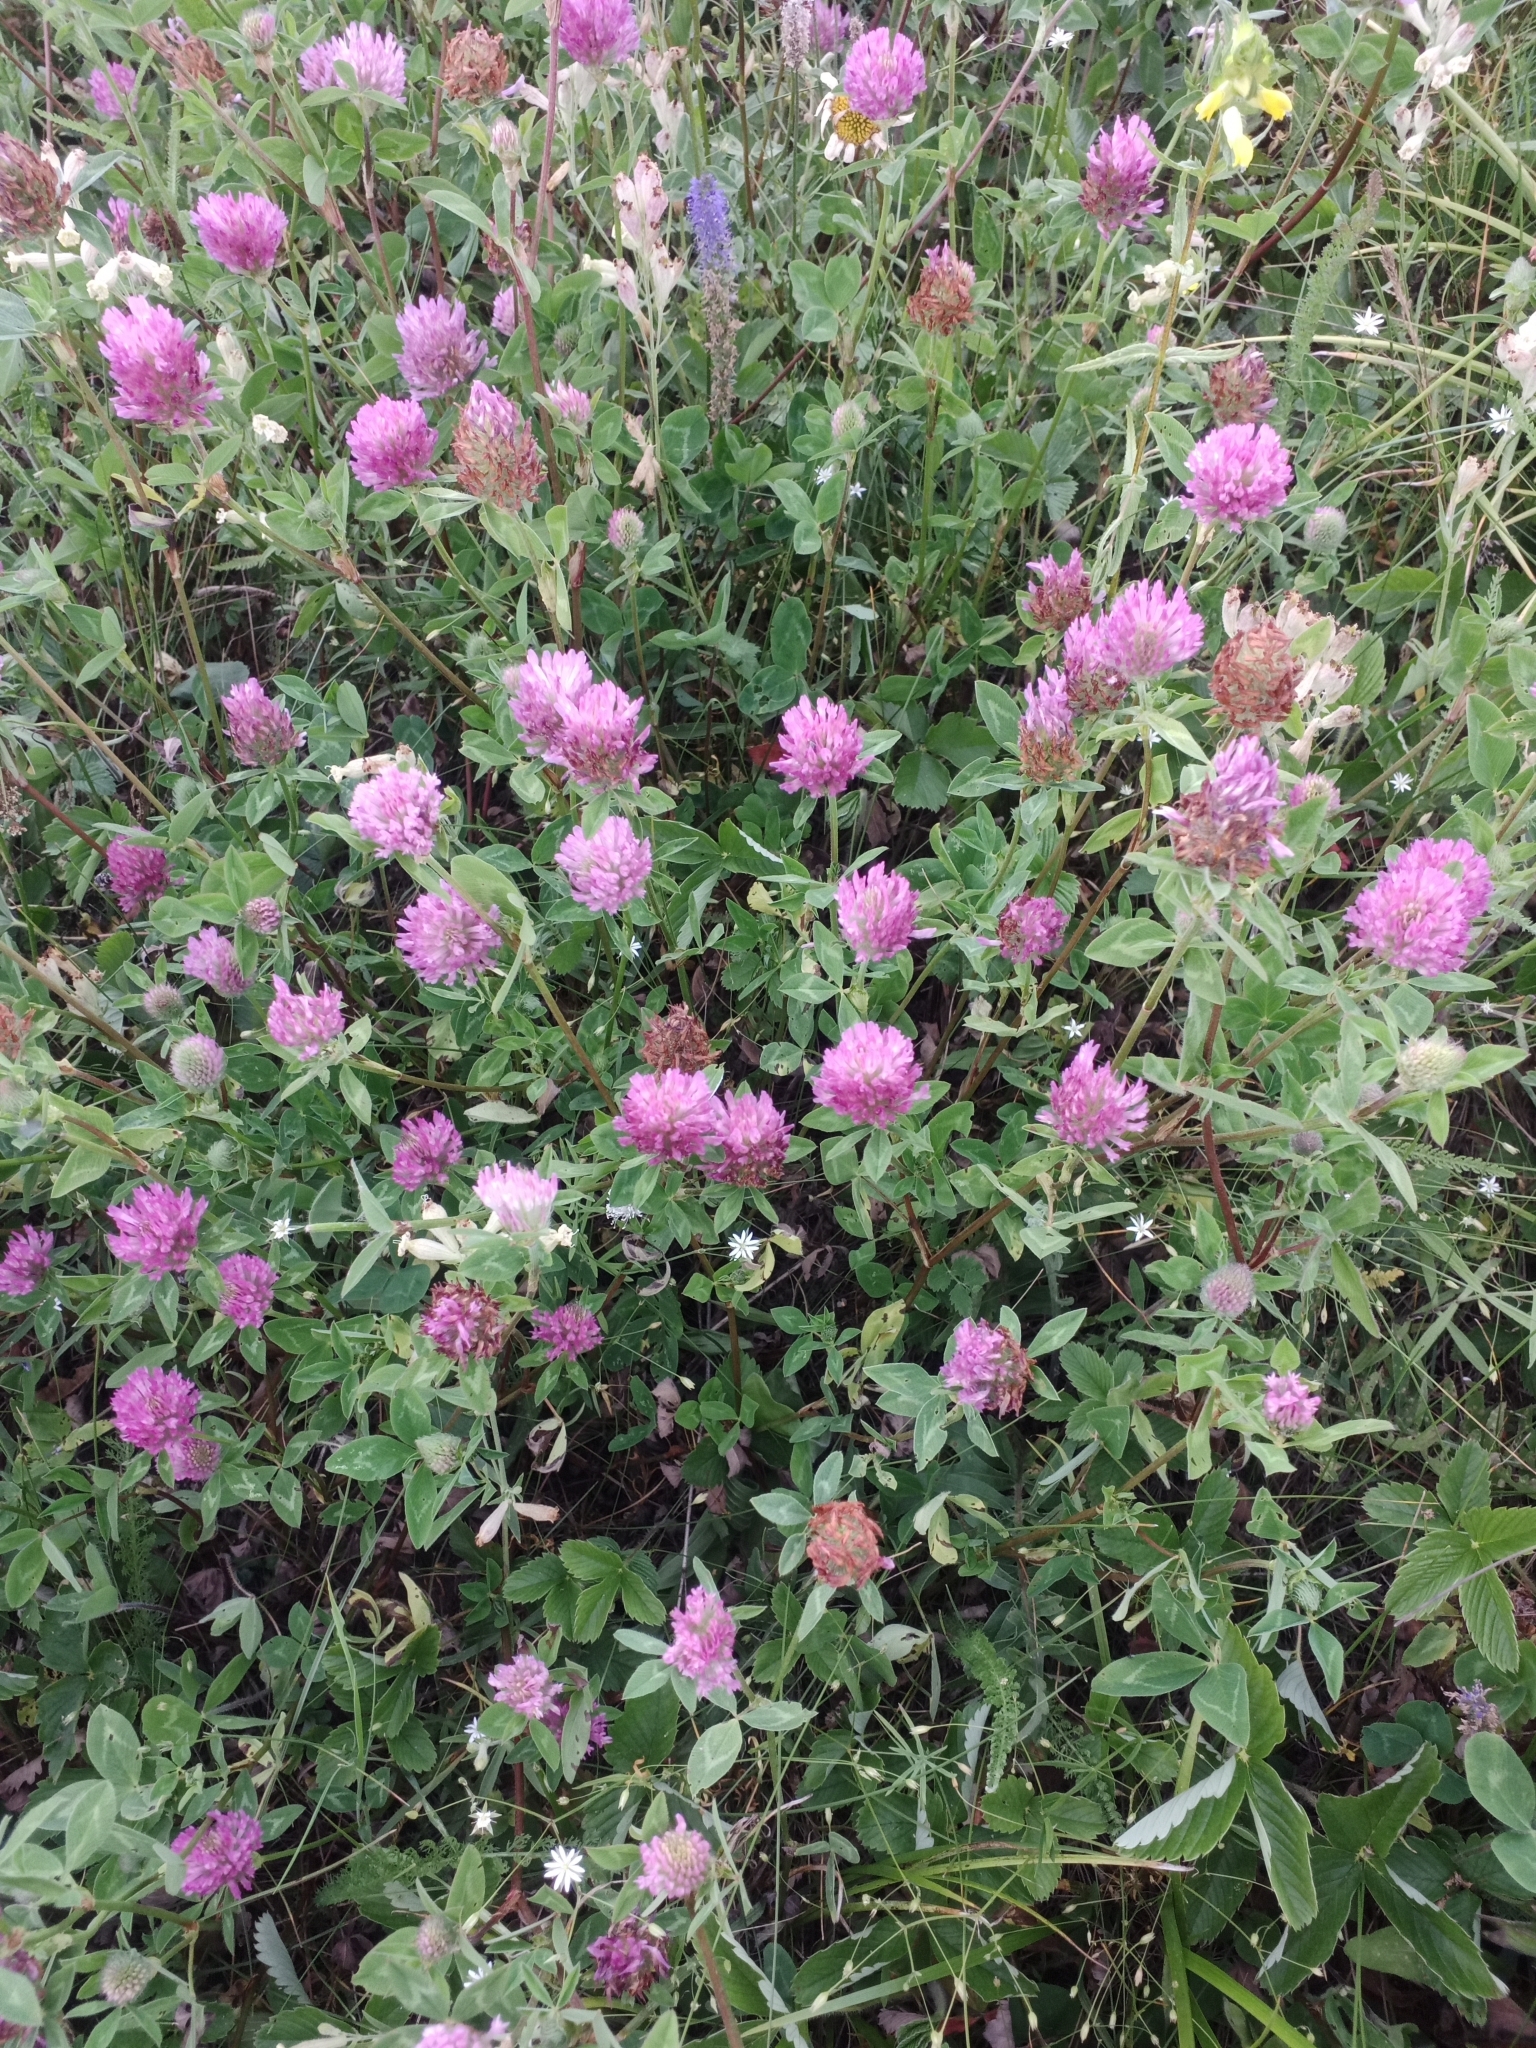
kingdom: Plantae
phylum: Tracheophyta
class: Magnoliopsida
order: Fabales
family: Fabaceae
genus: Trifolium
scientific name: Trifolium pratense
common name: Red clover
